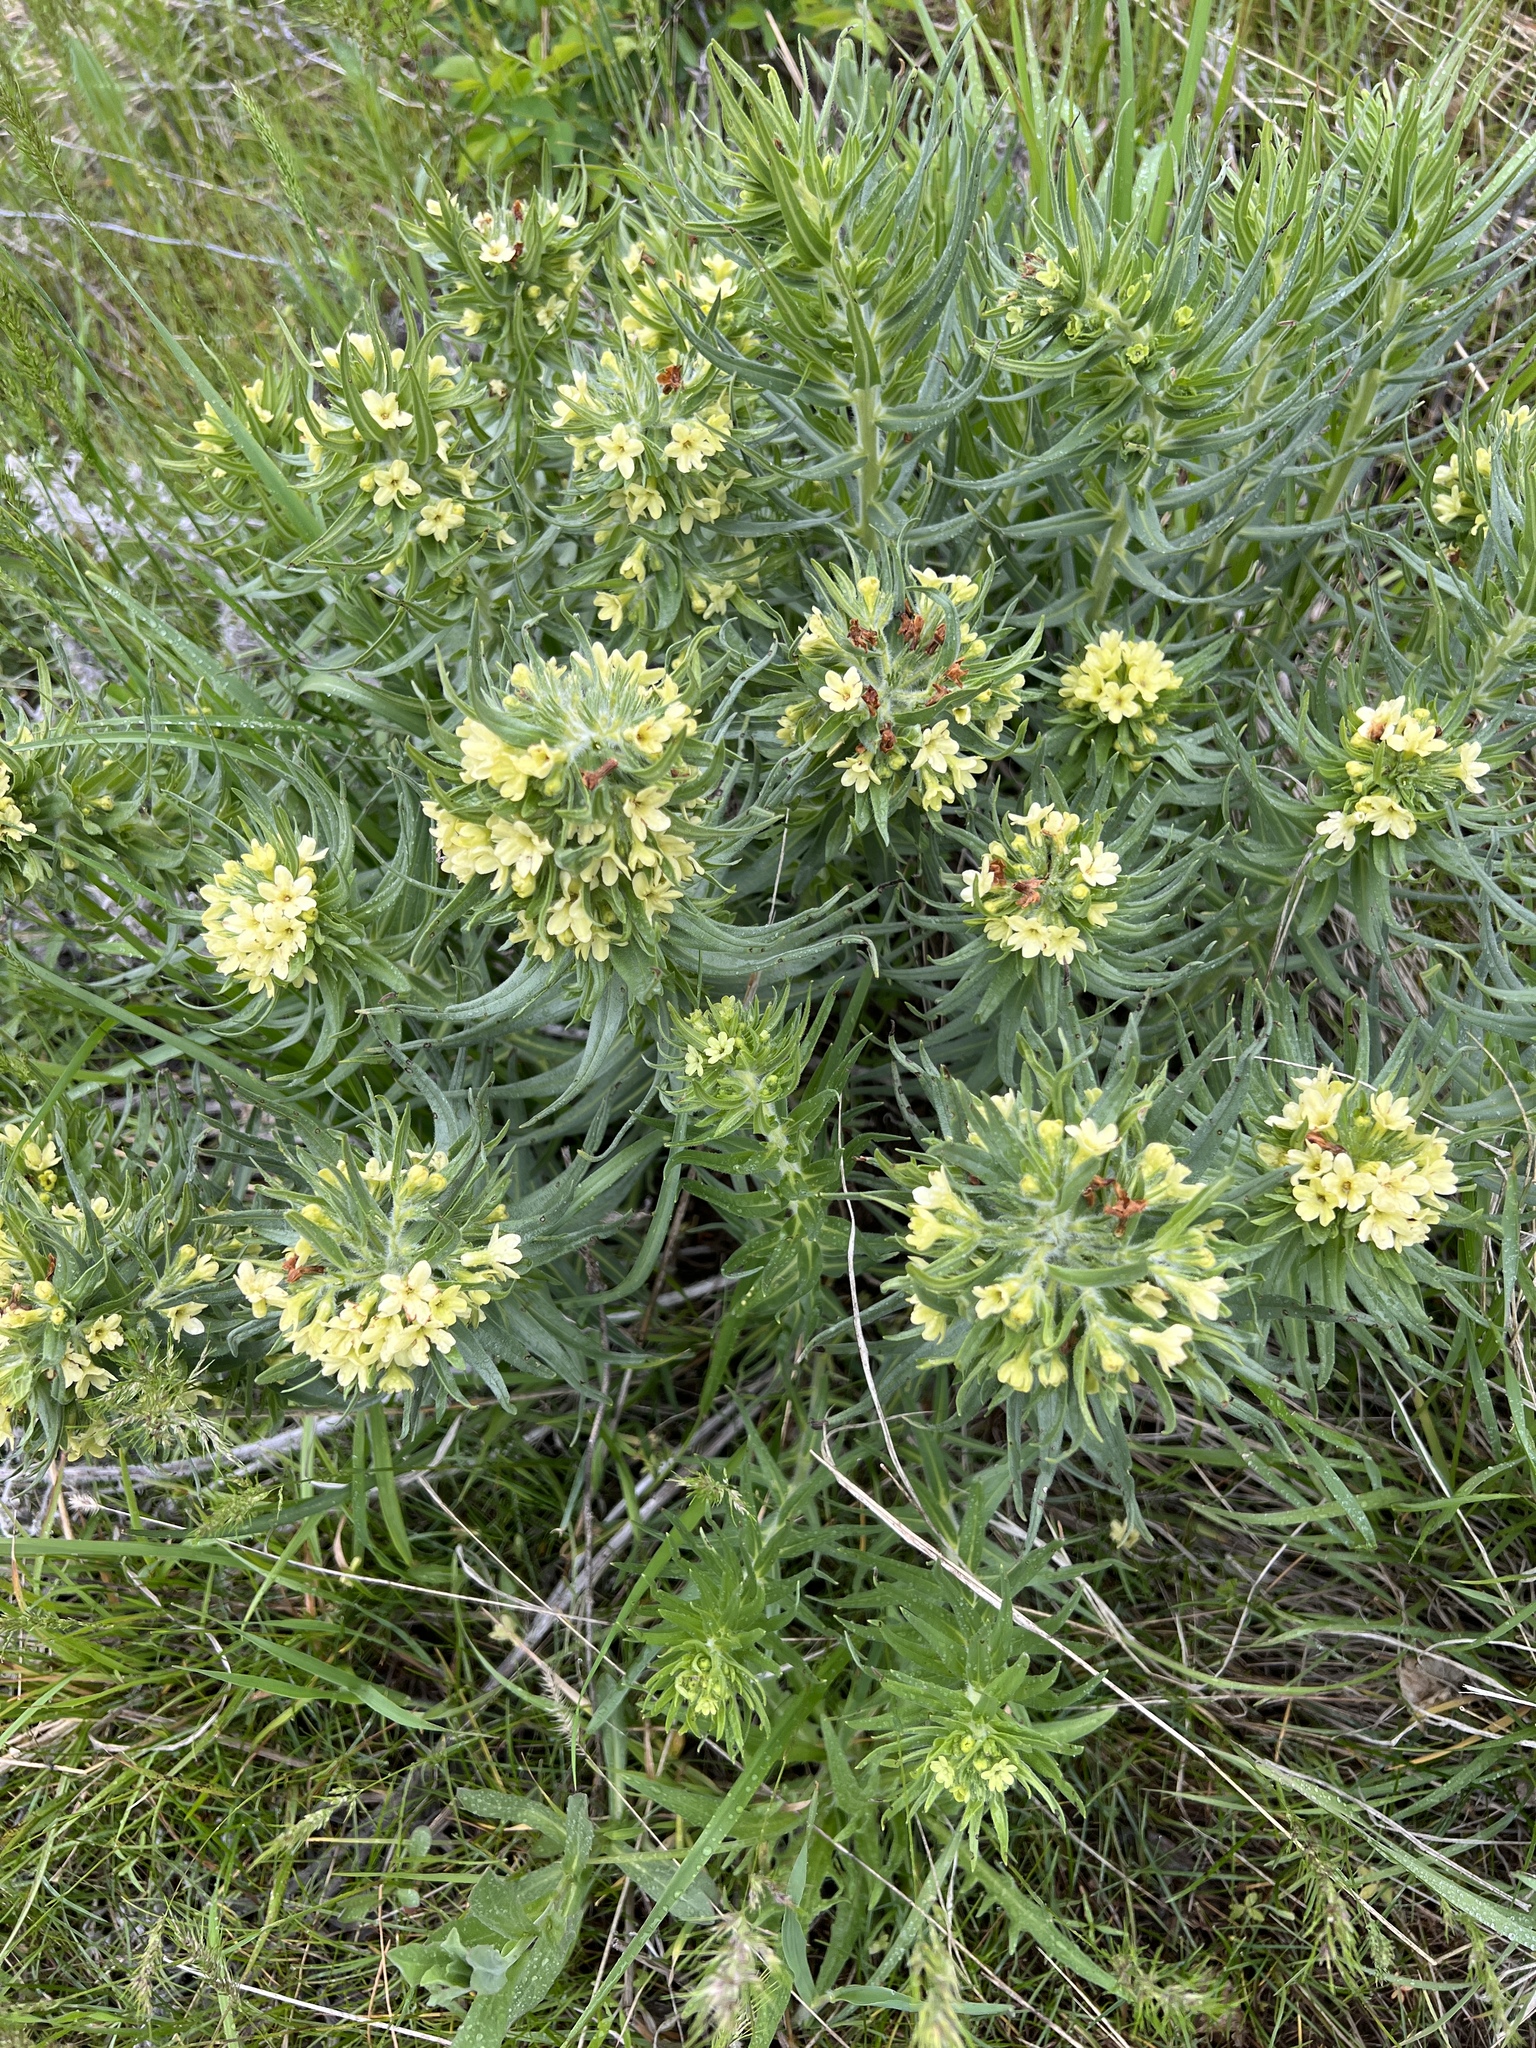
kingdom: Plantae
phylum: Tracheophyta
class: Magnoliopsida
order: Boraginales
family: Boraginaceae
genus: Lithospermum
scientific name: Lithospermum ruderale
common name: Western gromwell
